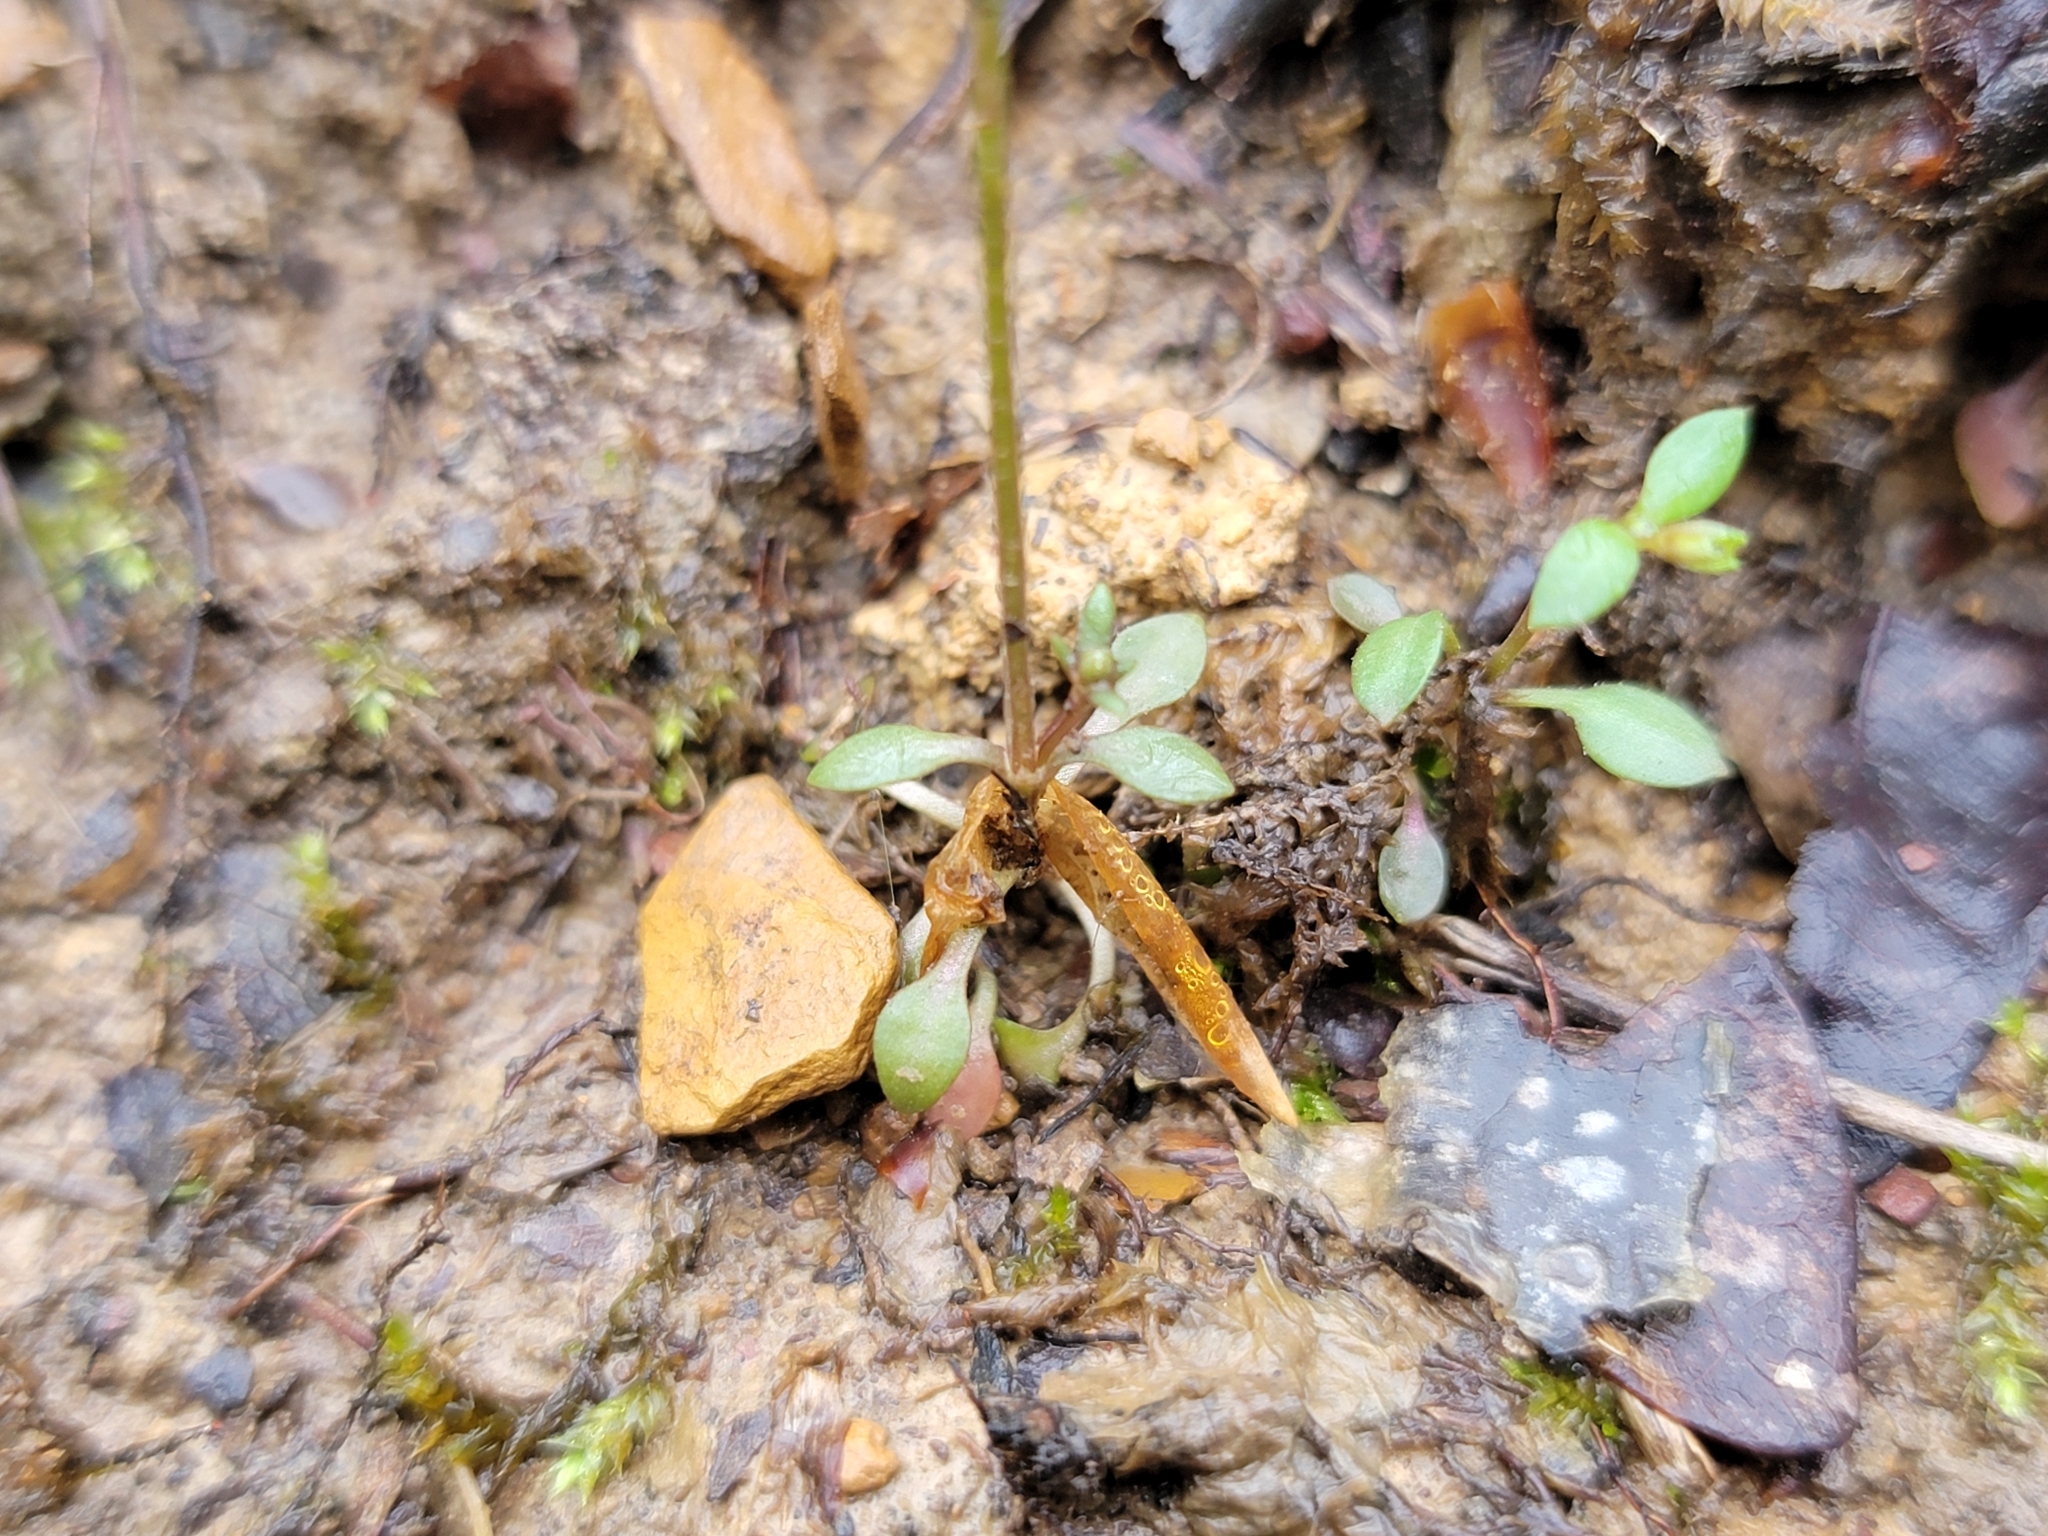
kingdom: Plantae
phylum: Tracheophyta
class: Magnoliopsida
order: Gentianales
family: Rubiaceae
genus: Houstonia
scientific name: Houstonia caerulea
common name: Bluets
